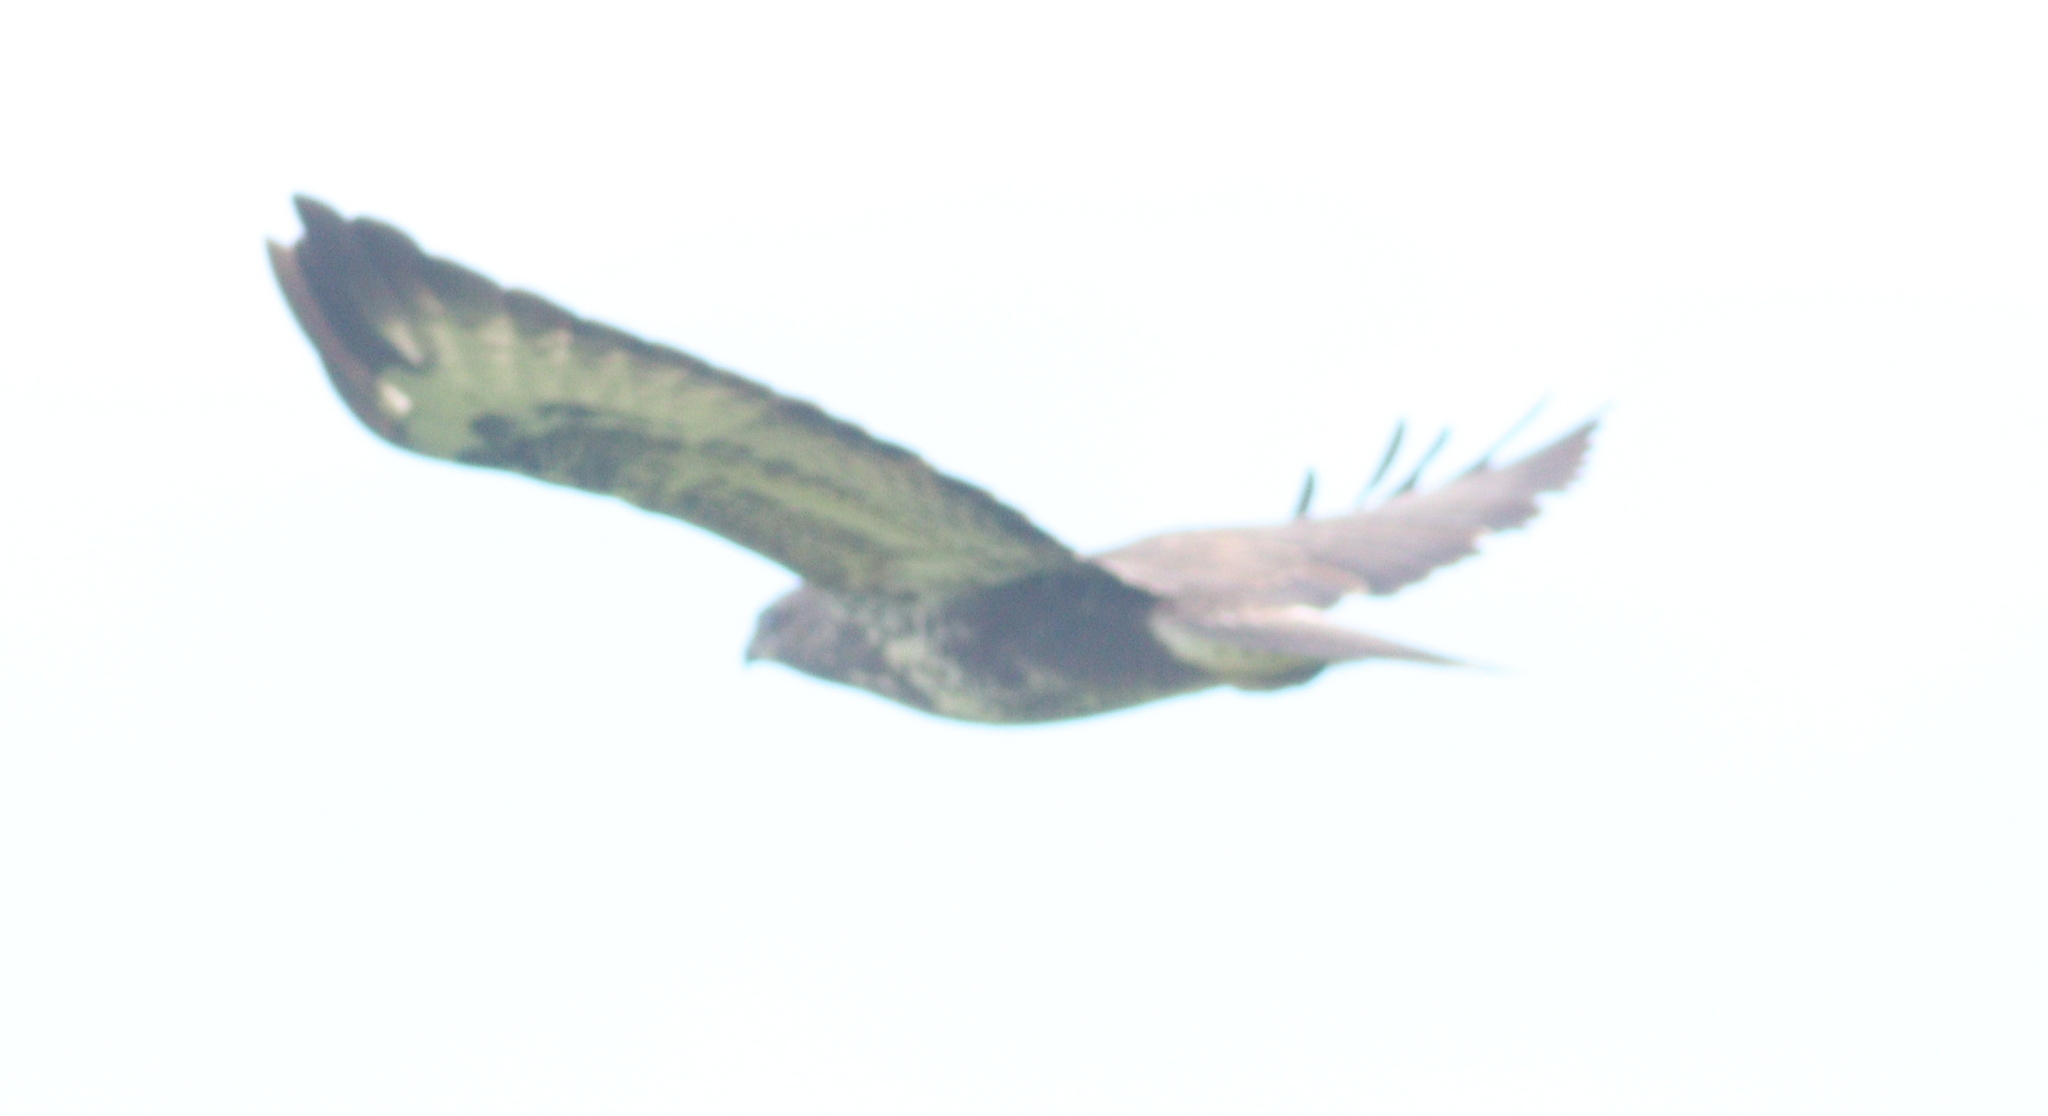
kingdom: Animalia
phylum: Chordata
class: Aves
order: Accipitriformes
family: Accipitridae
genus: Buteo
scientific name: Buteo buteo
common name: Common buzzard
